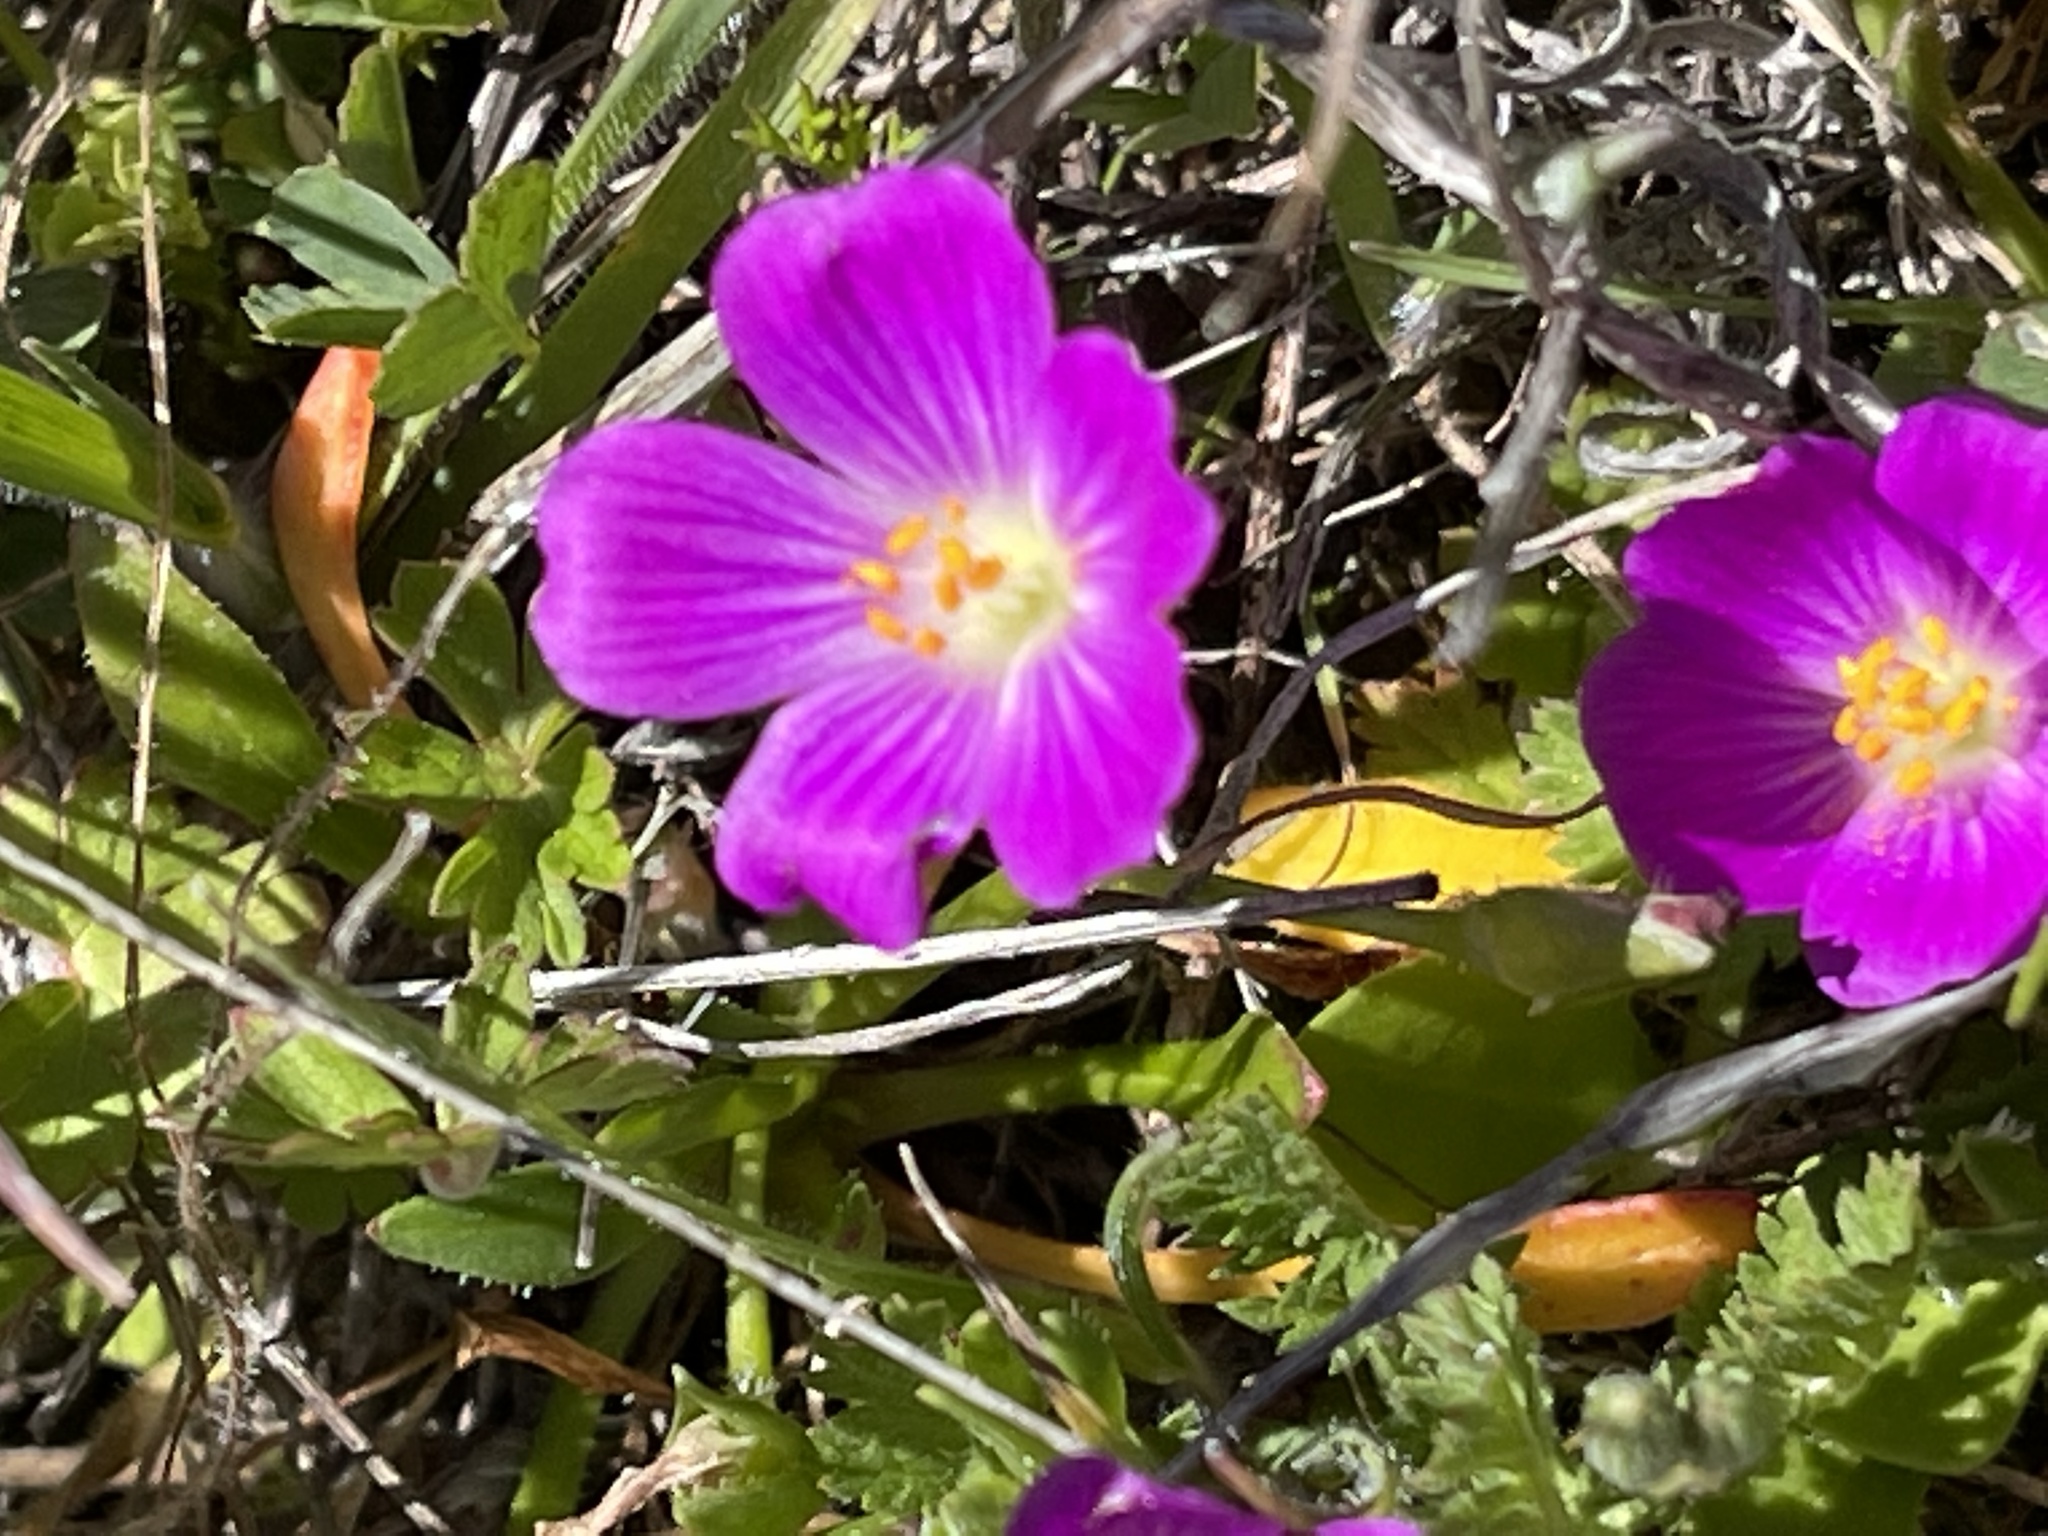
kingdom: Plantae
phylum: Tracheophyta
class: Magnoliopsida
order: Caryophyllales
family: Montiaceae
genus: Calandrinia
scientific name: Calandrinia menziesii
